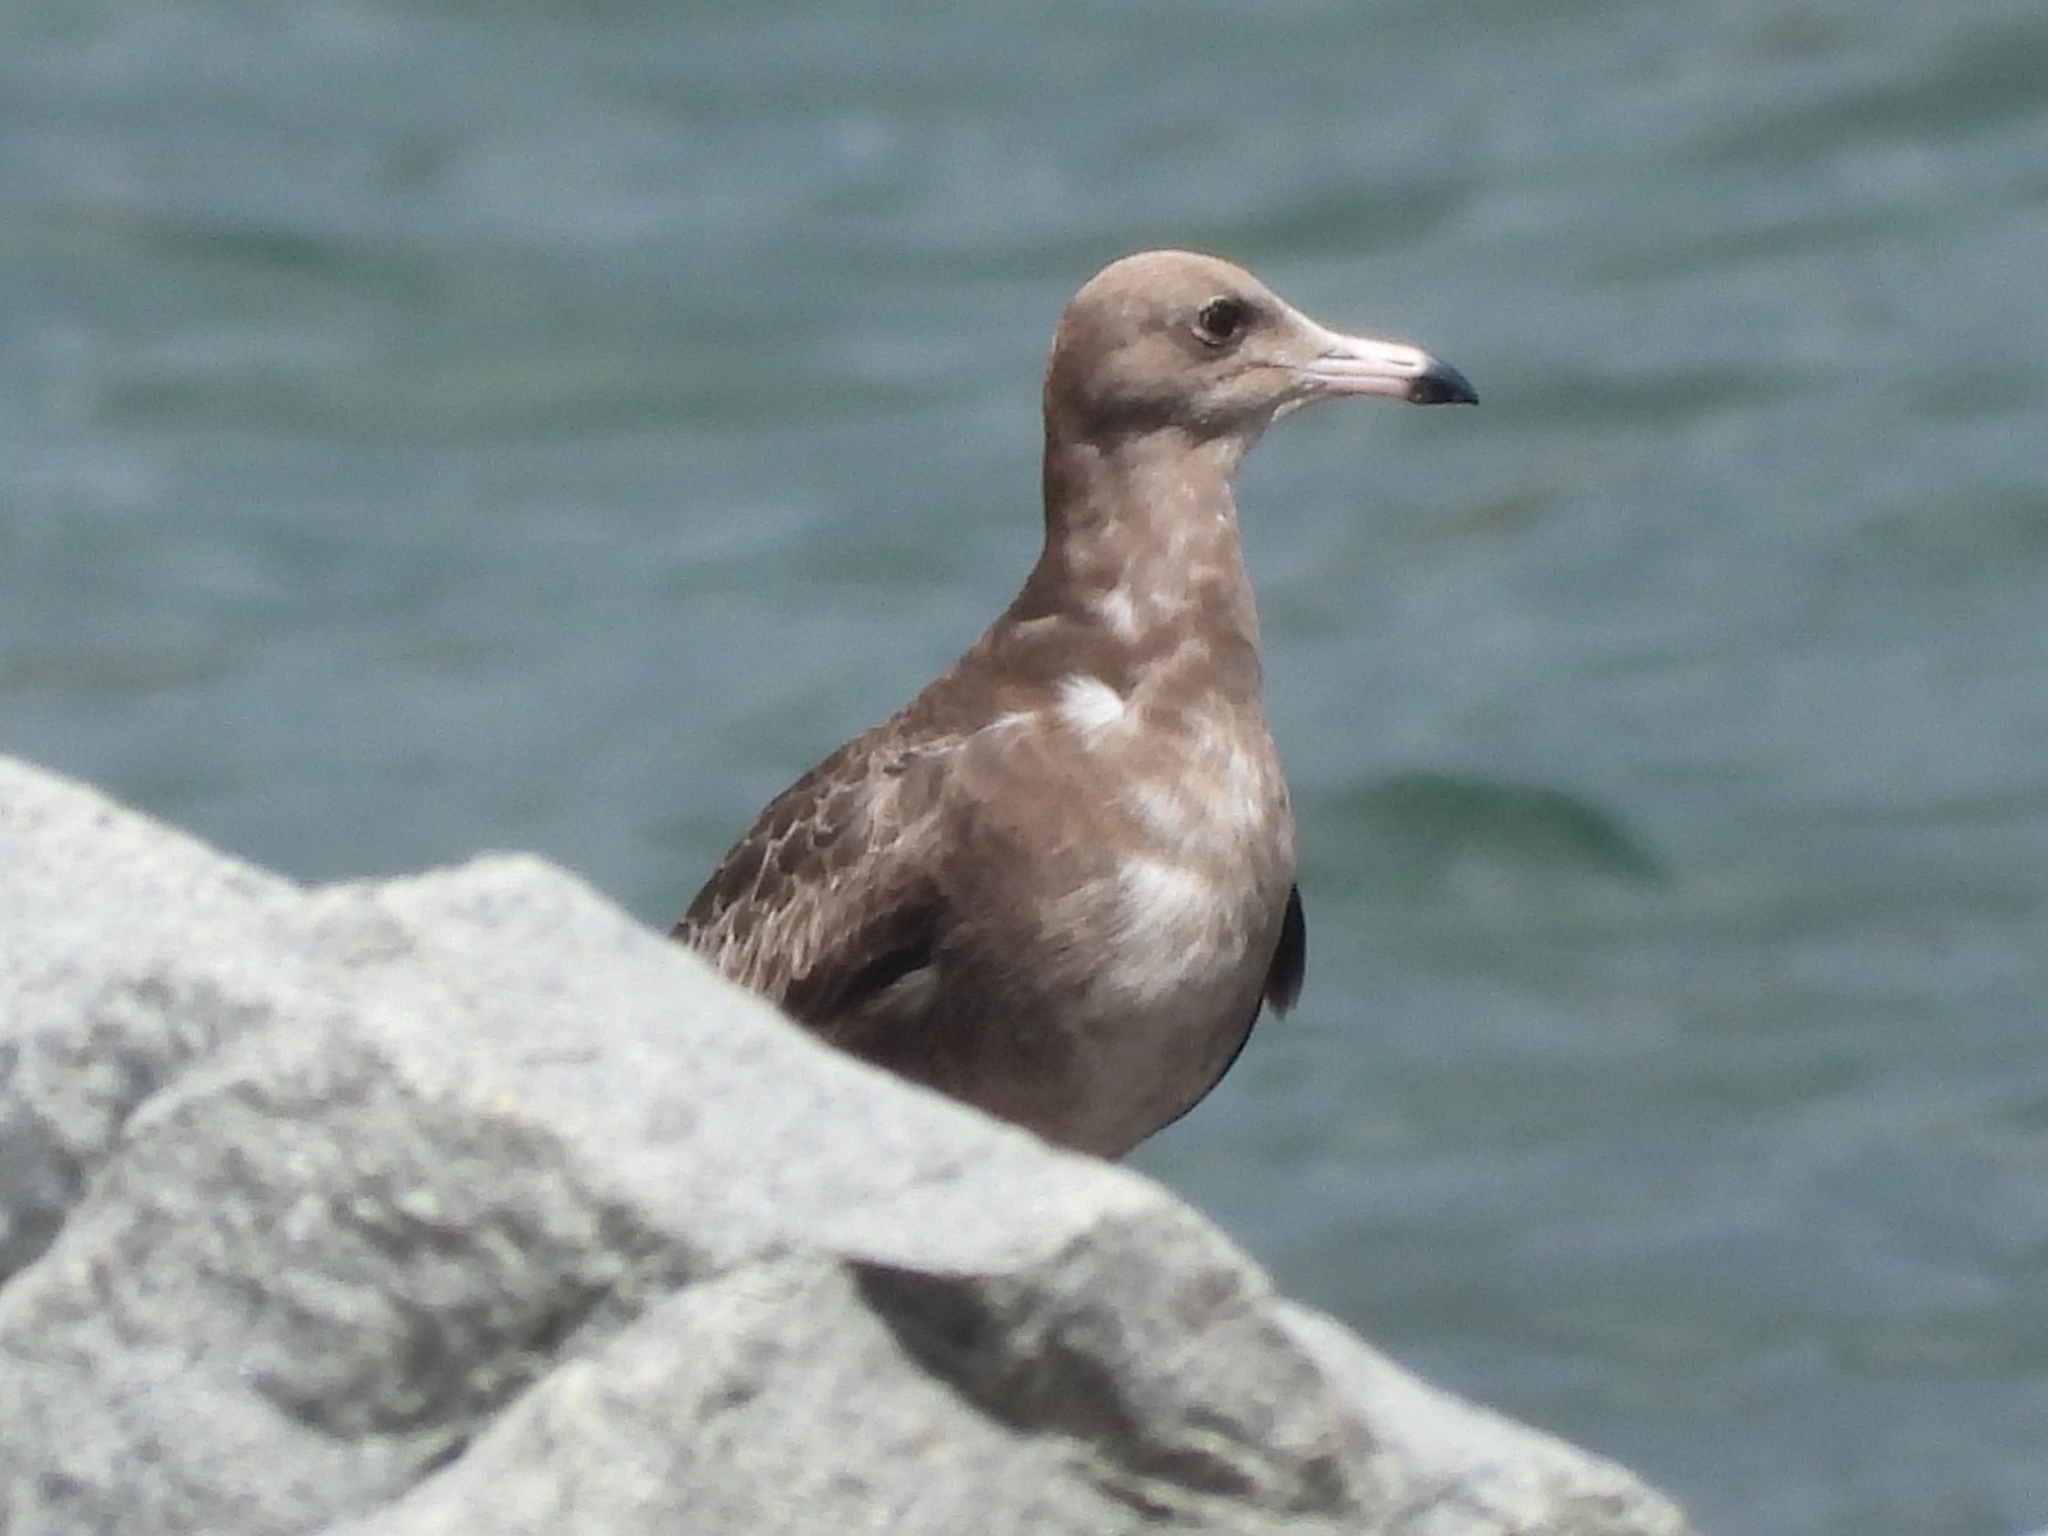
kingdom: Animalia
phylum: Chordata
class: Aves
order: Charadriiformes
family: Laridae
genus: Larus
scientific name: Larus crassirostris
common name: Black-tailed gull
